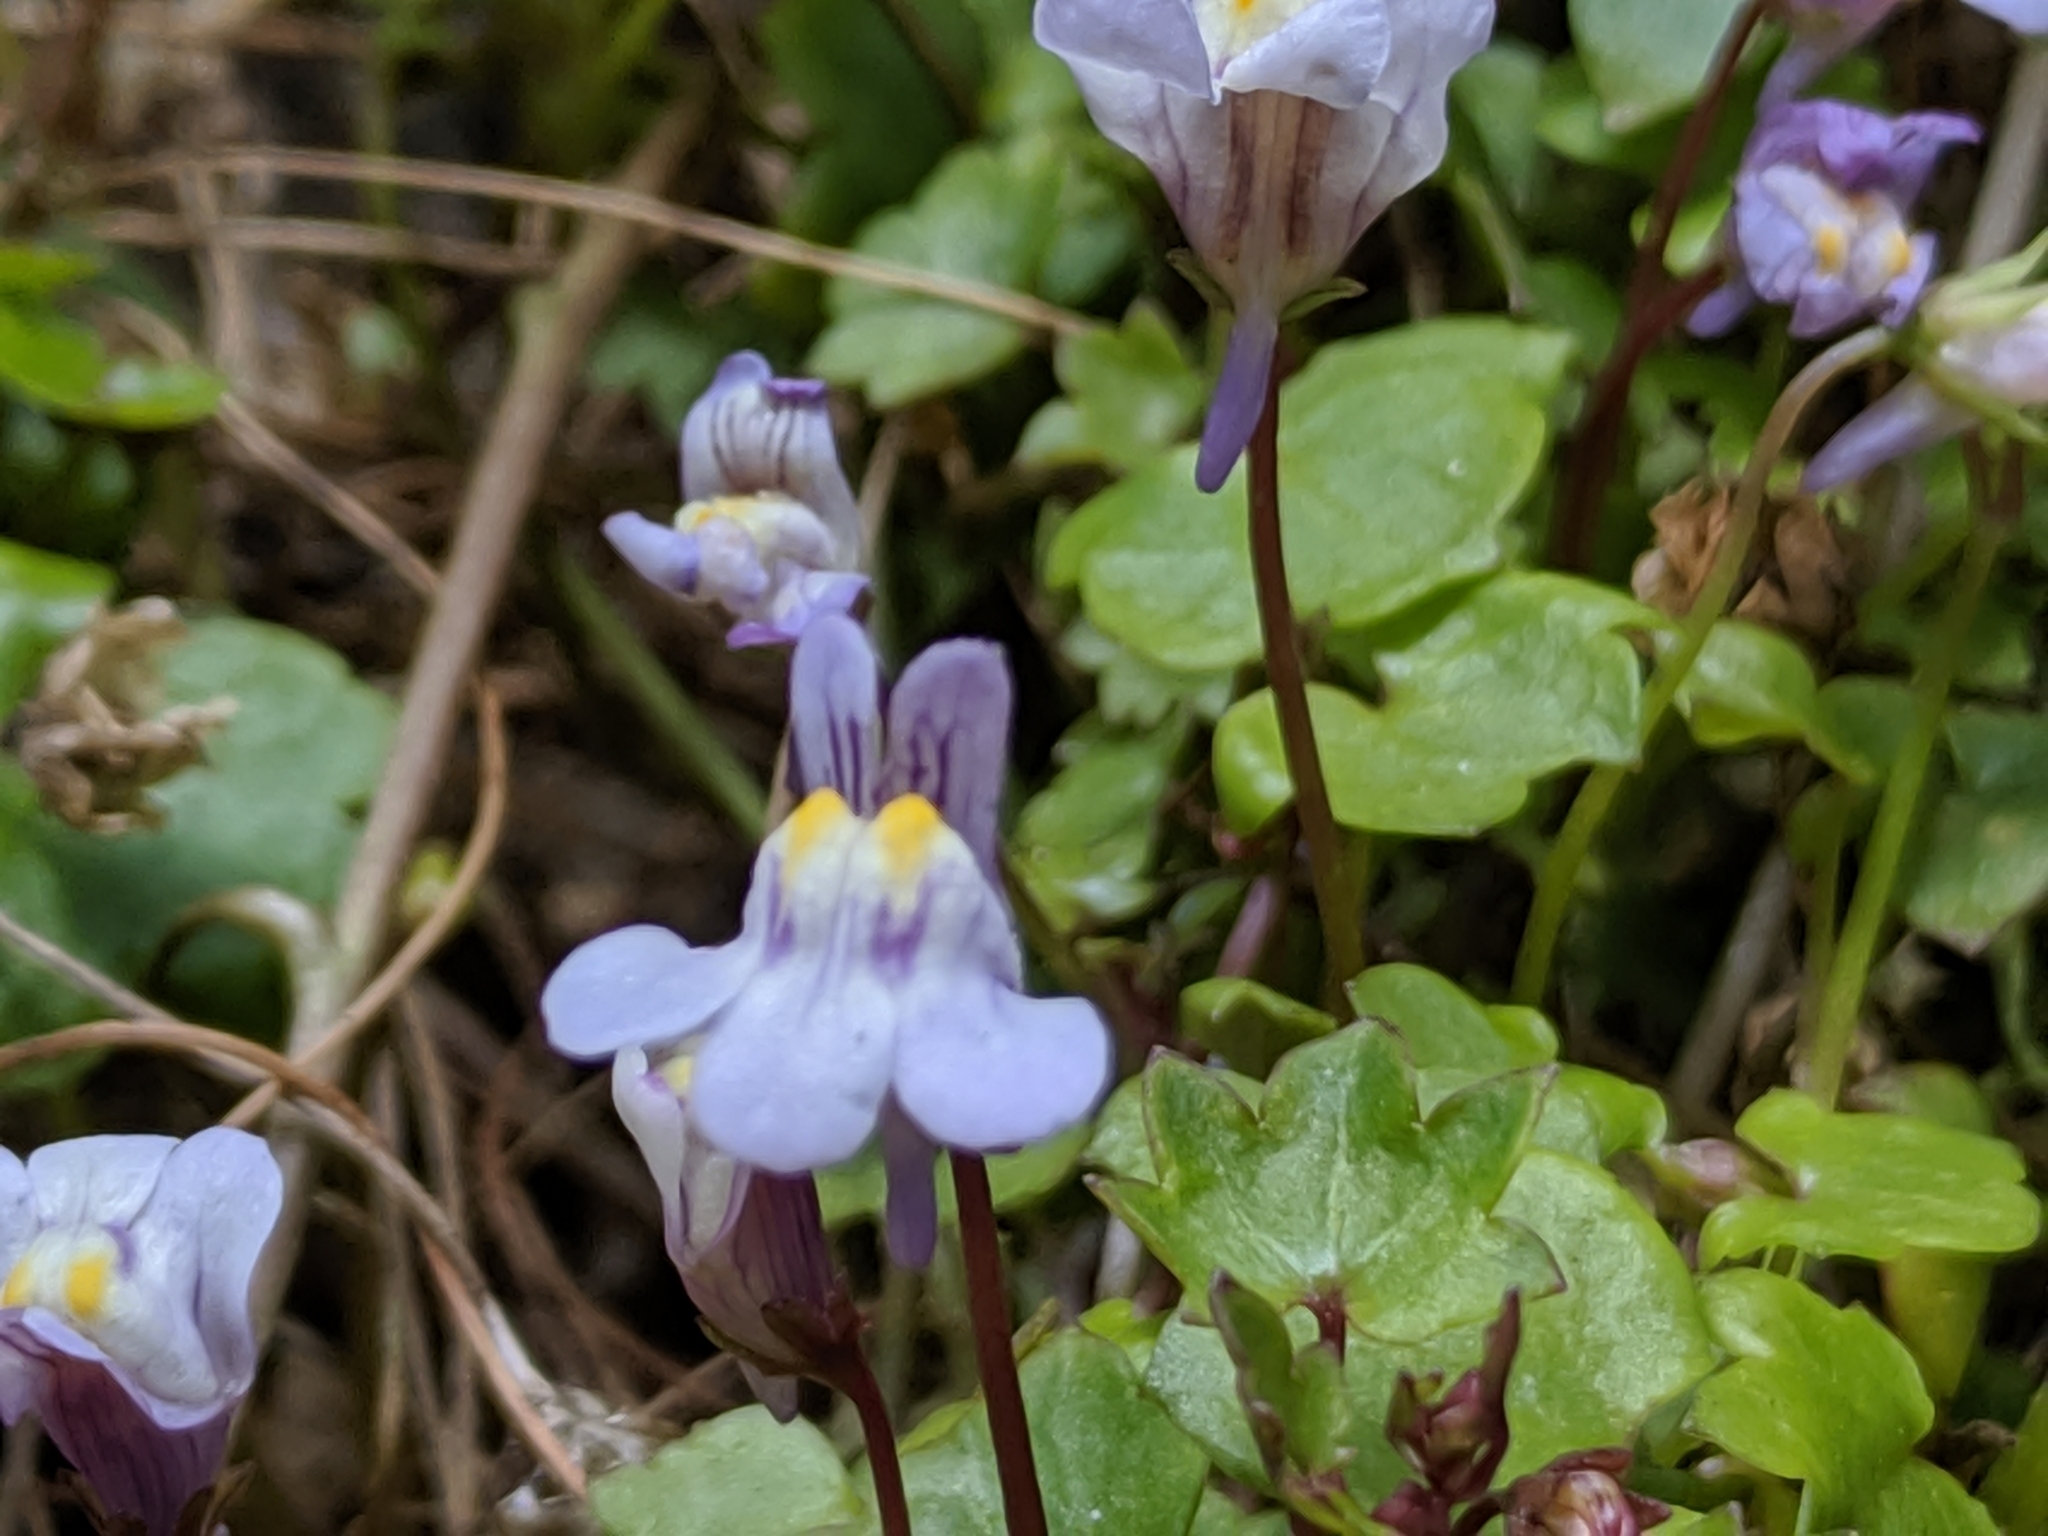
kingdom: Plantae
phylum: Tracheophyta
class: Magnoliopsida
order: Lamiales
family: Plantaginaceae
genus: Cymbalaria
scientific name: Cymbalaria muralis
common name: Ivy-leaved toadflax
